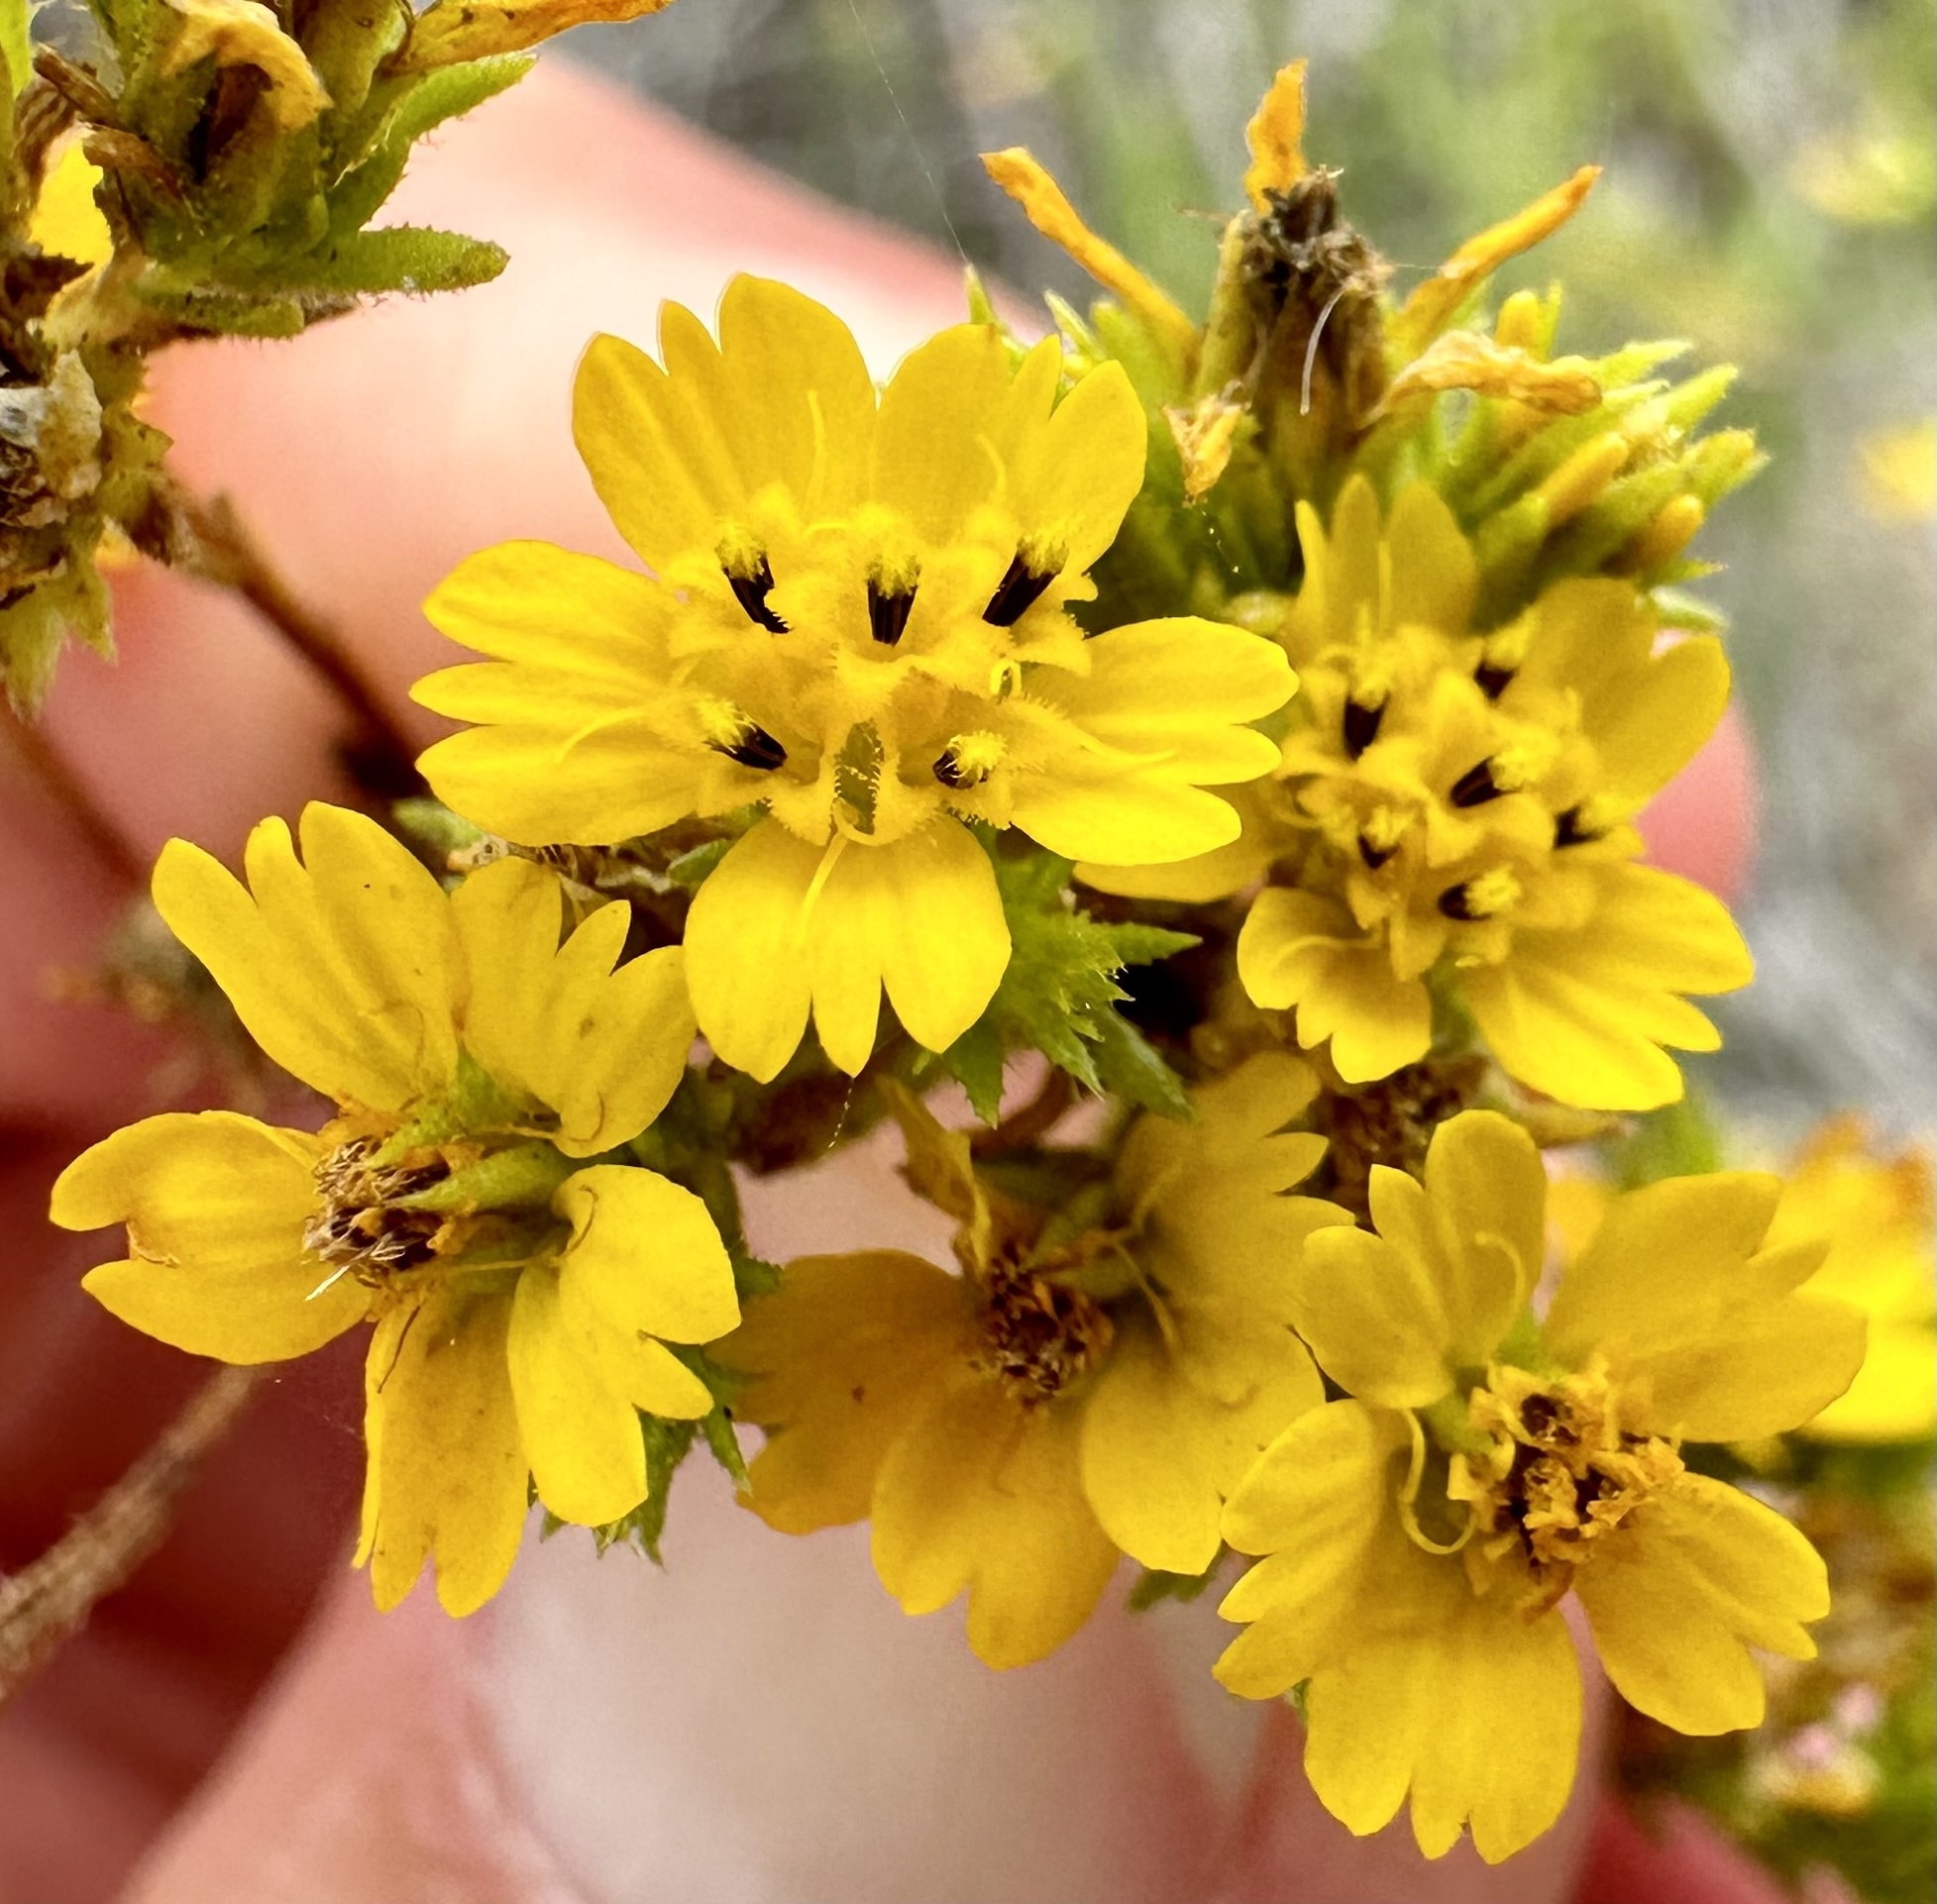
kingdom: Plantae
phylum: Tracheophyta
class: Magnoliopsida
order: Asterales
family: Asteraceae
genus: Deinandra
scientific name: Deinandra fasciculata
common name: Clustered tarweed
